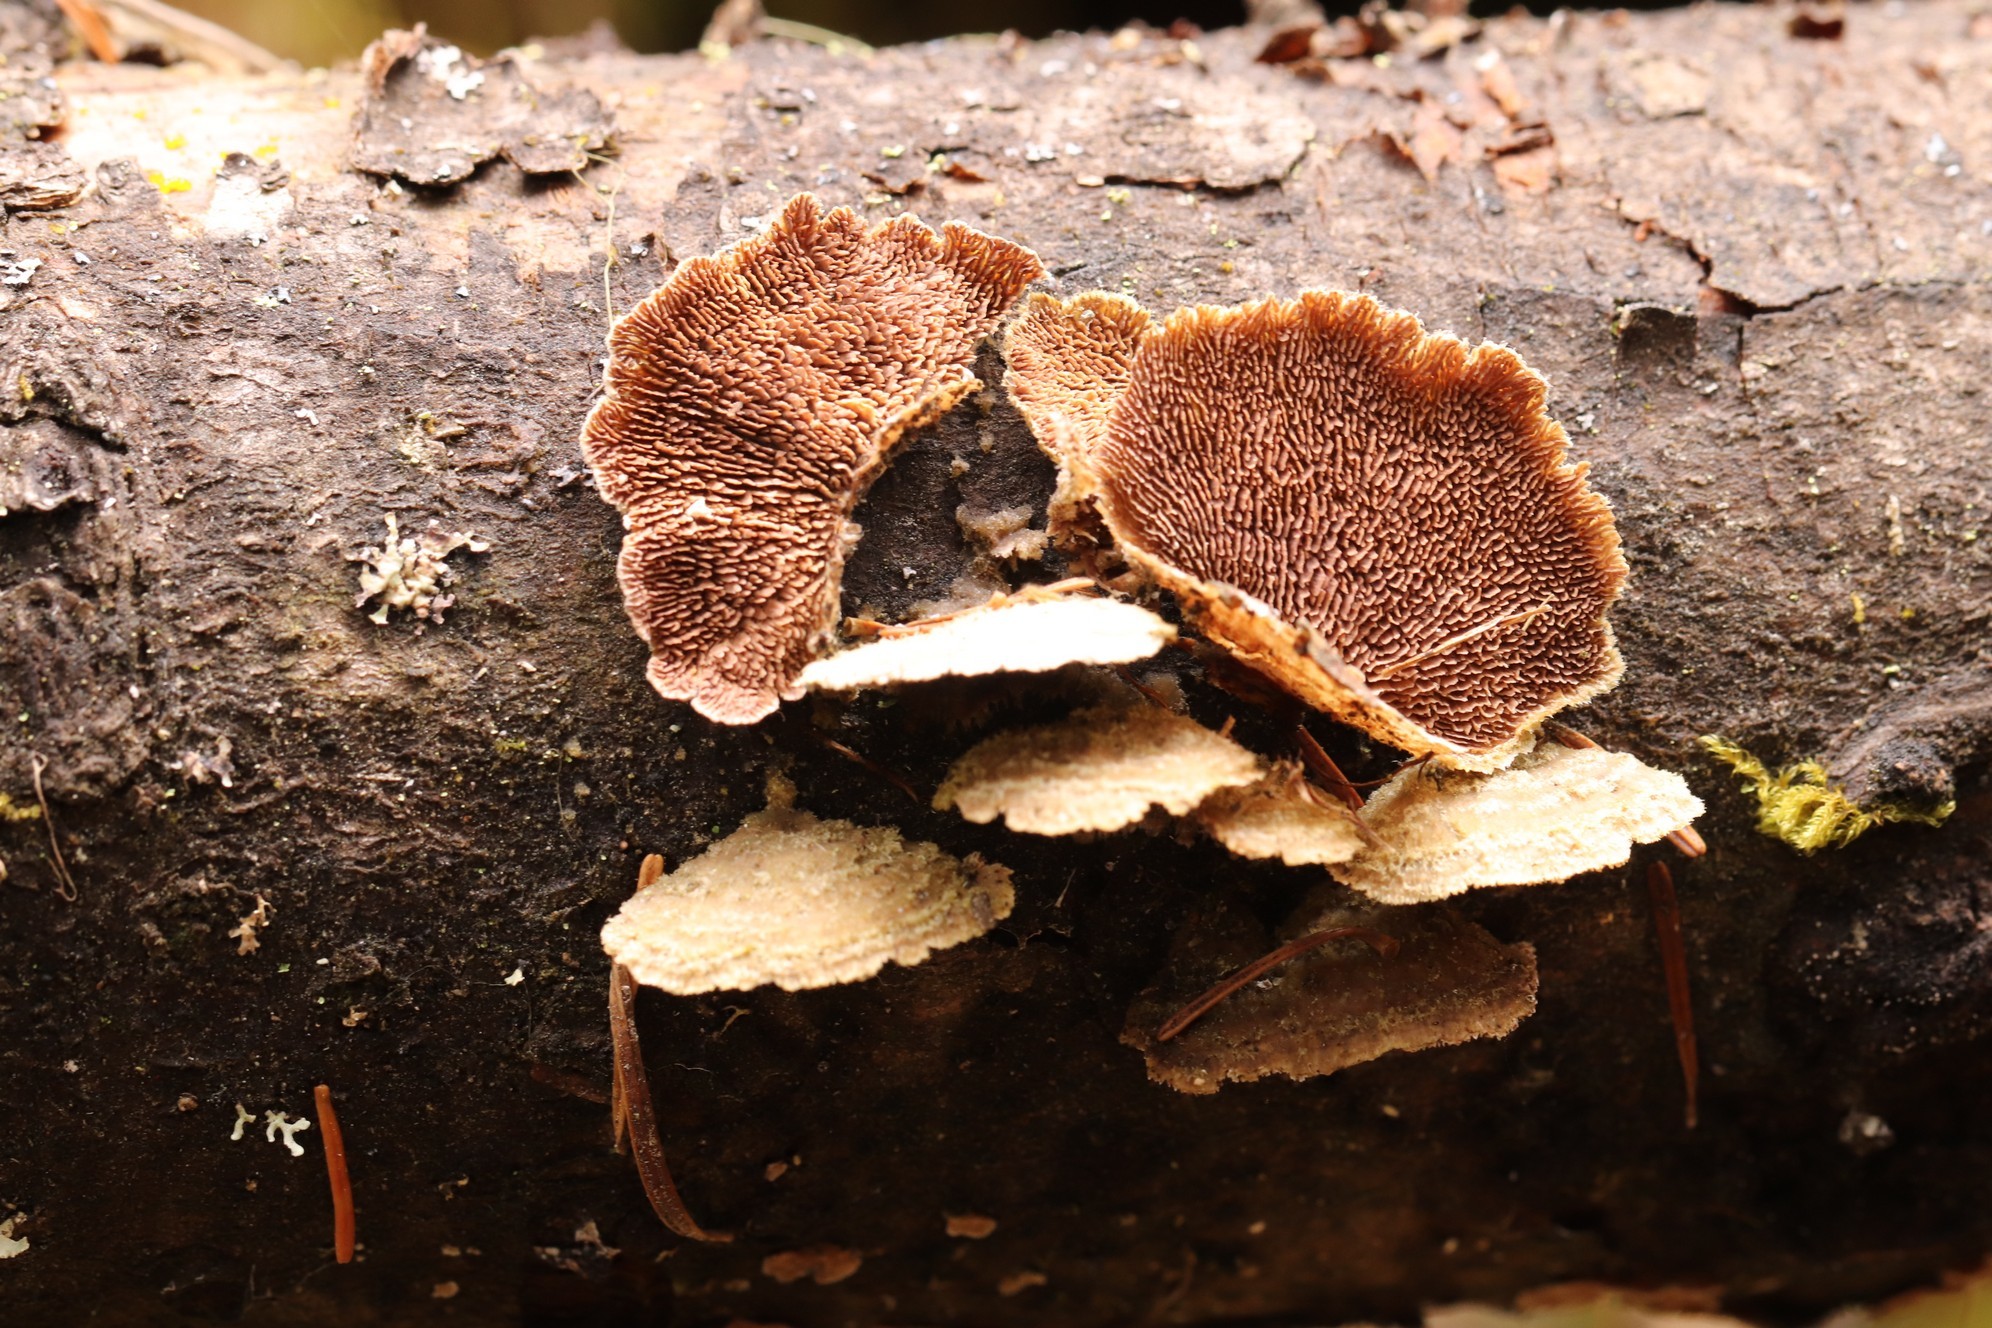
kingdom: Fungi
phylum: Basidiomycota
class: Agaricomycetes
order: Hymenochaetales
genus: Trichaptum
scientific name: Trichaptum fuscoviolaceum
